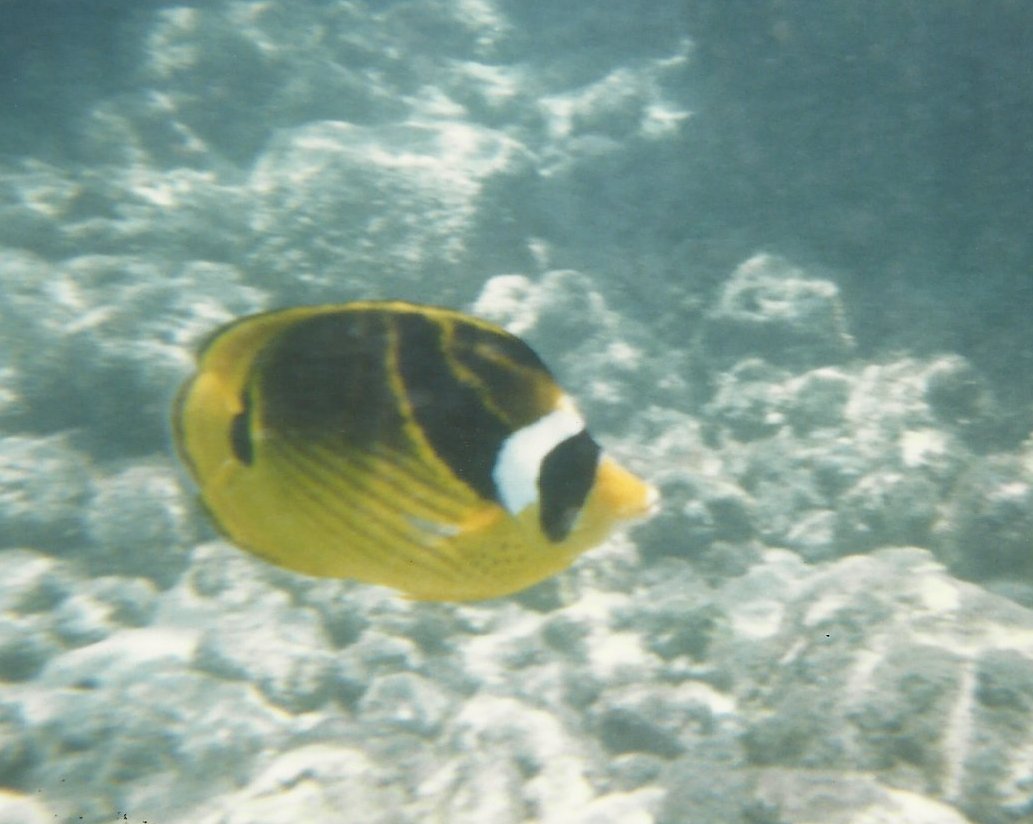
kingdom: Animalia
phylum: Chordata
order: Perciformes
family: Chaetodontidae
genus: Chaetodon
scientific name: Chaetodon lunula
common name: Raccoon butterflyfish
